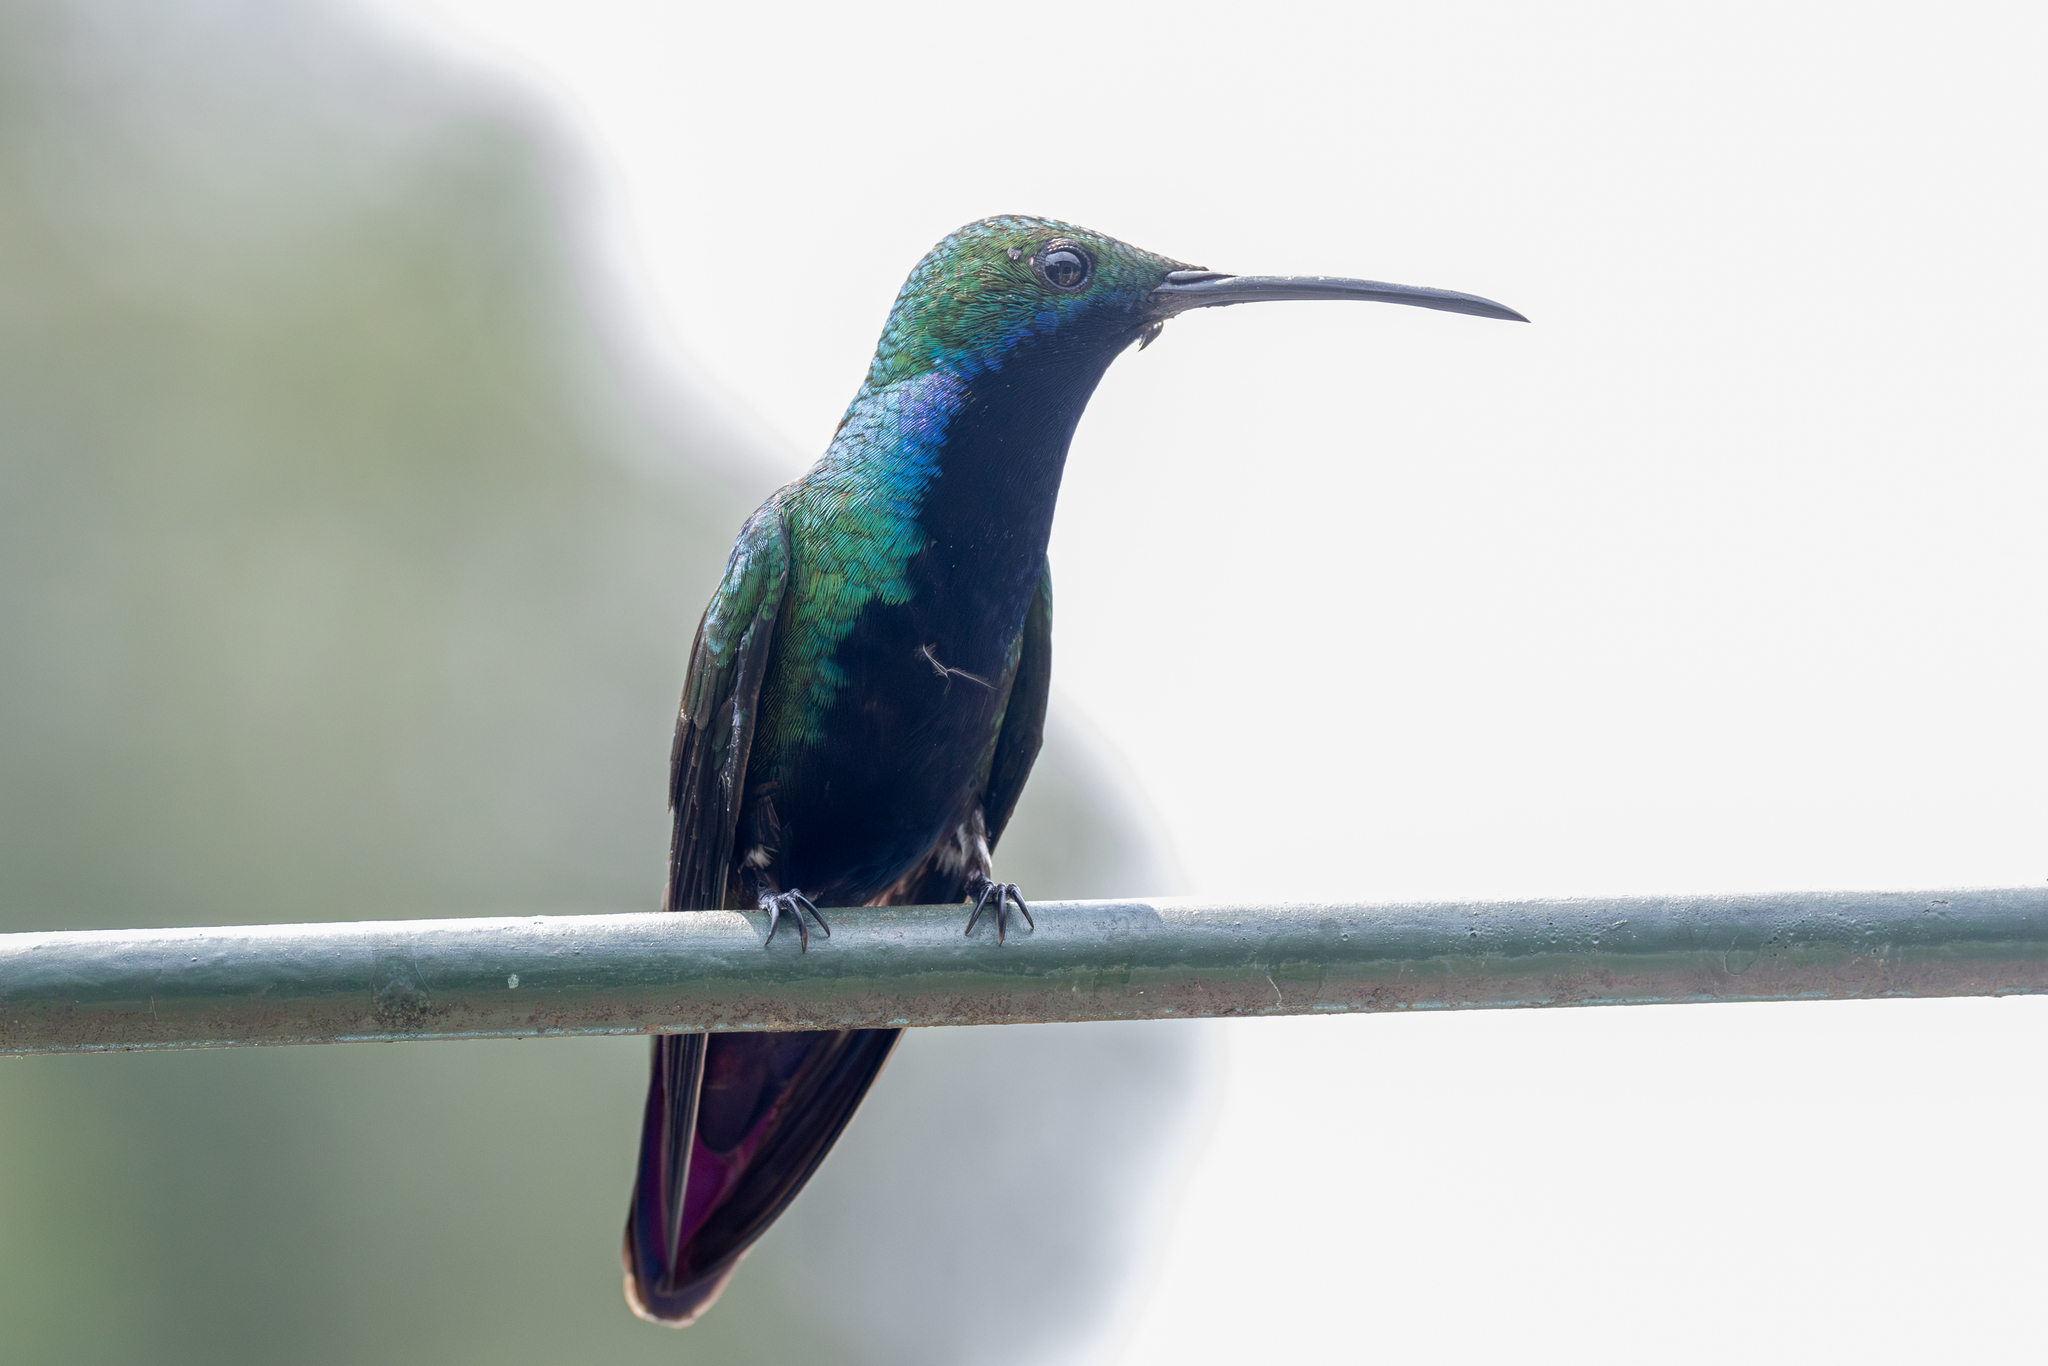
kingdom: Animalia
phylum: Chordata
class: Aves
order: Apodiformes
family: Trochilidae
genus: Anthracothorax
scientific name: Anthracothorax nigricollis
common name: Black-throated mango
